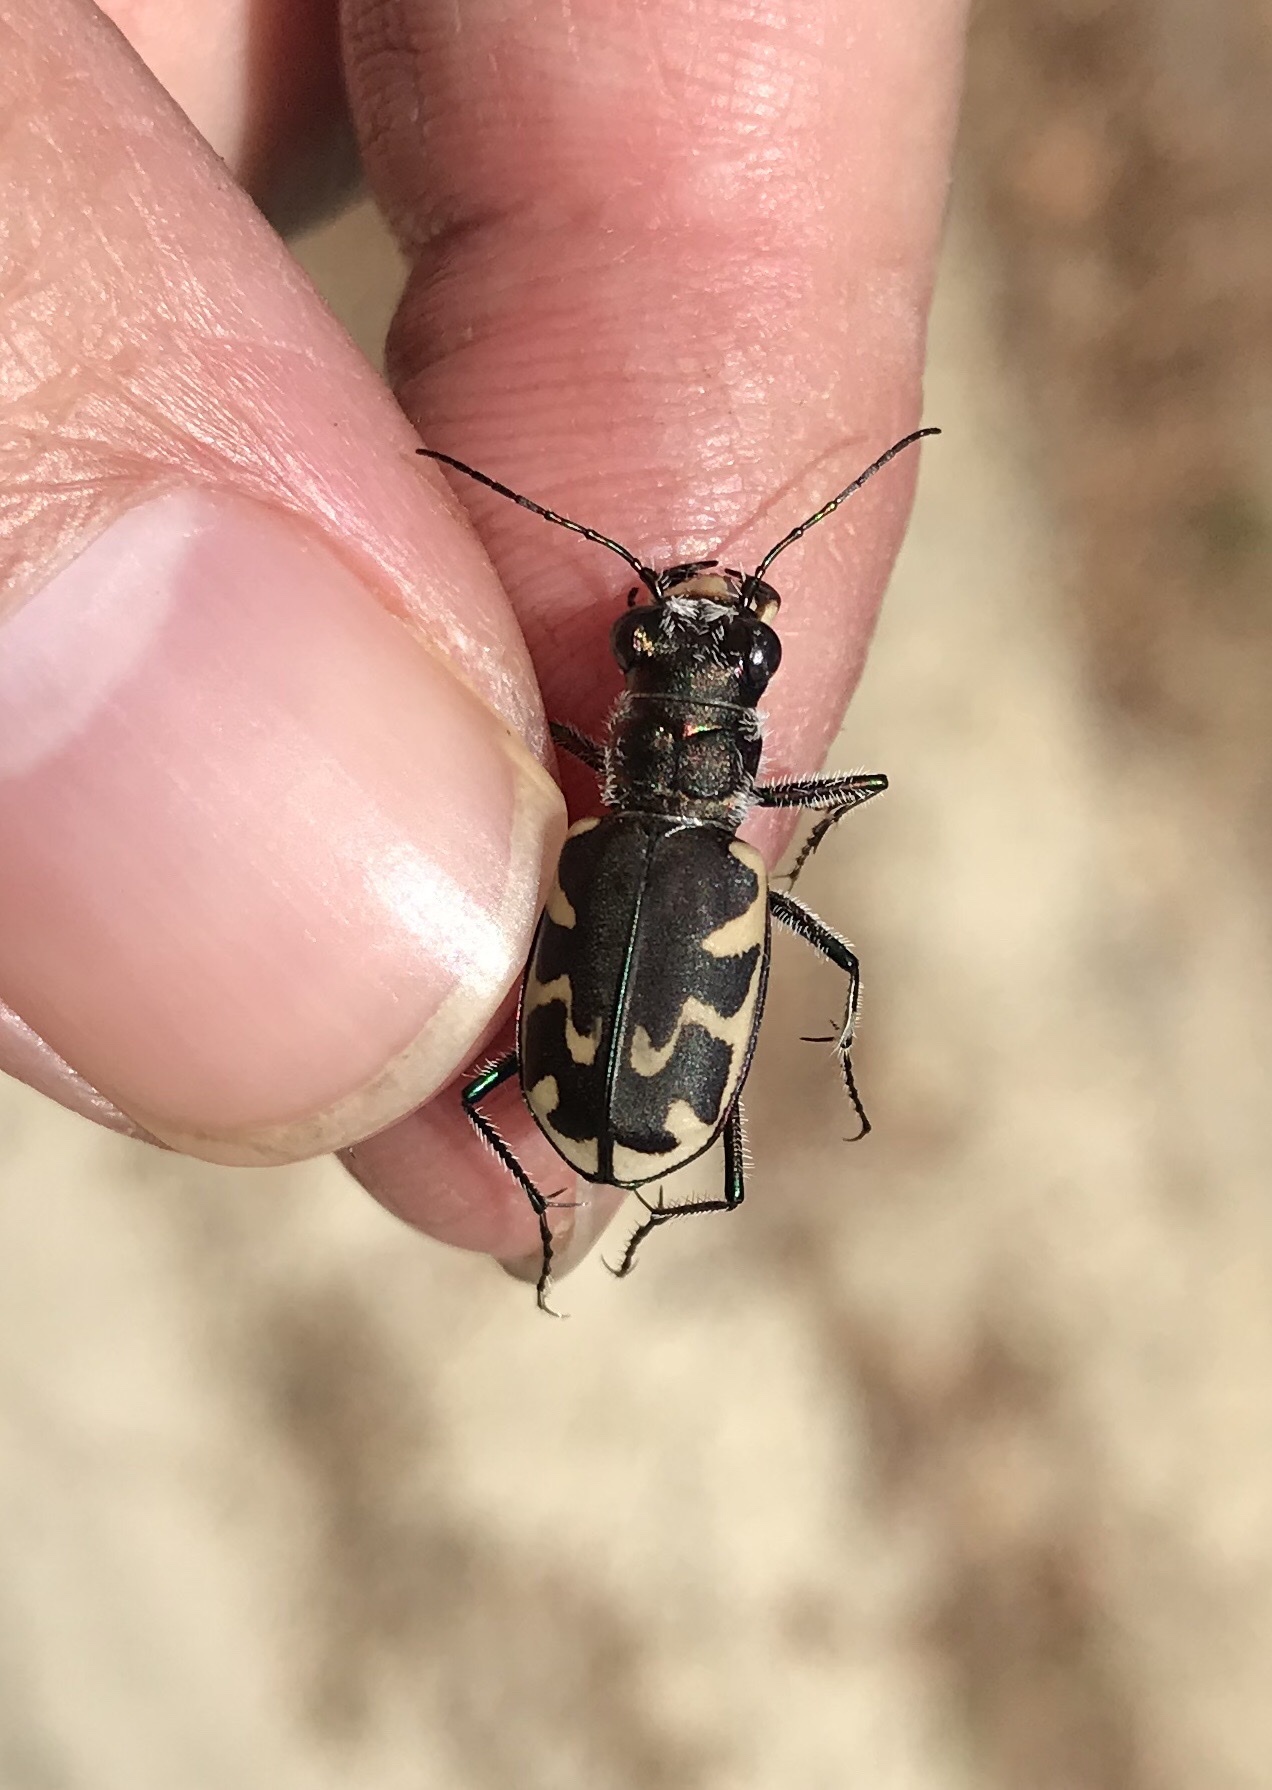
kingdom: Animalia
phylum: Arthropoda
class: Insecta
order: Coleoptera
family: Carabidae
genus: Cicindela
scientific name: Cicindela formosa
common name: Big sand tiger beetle
